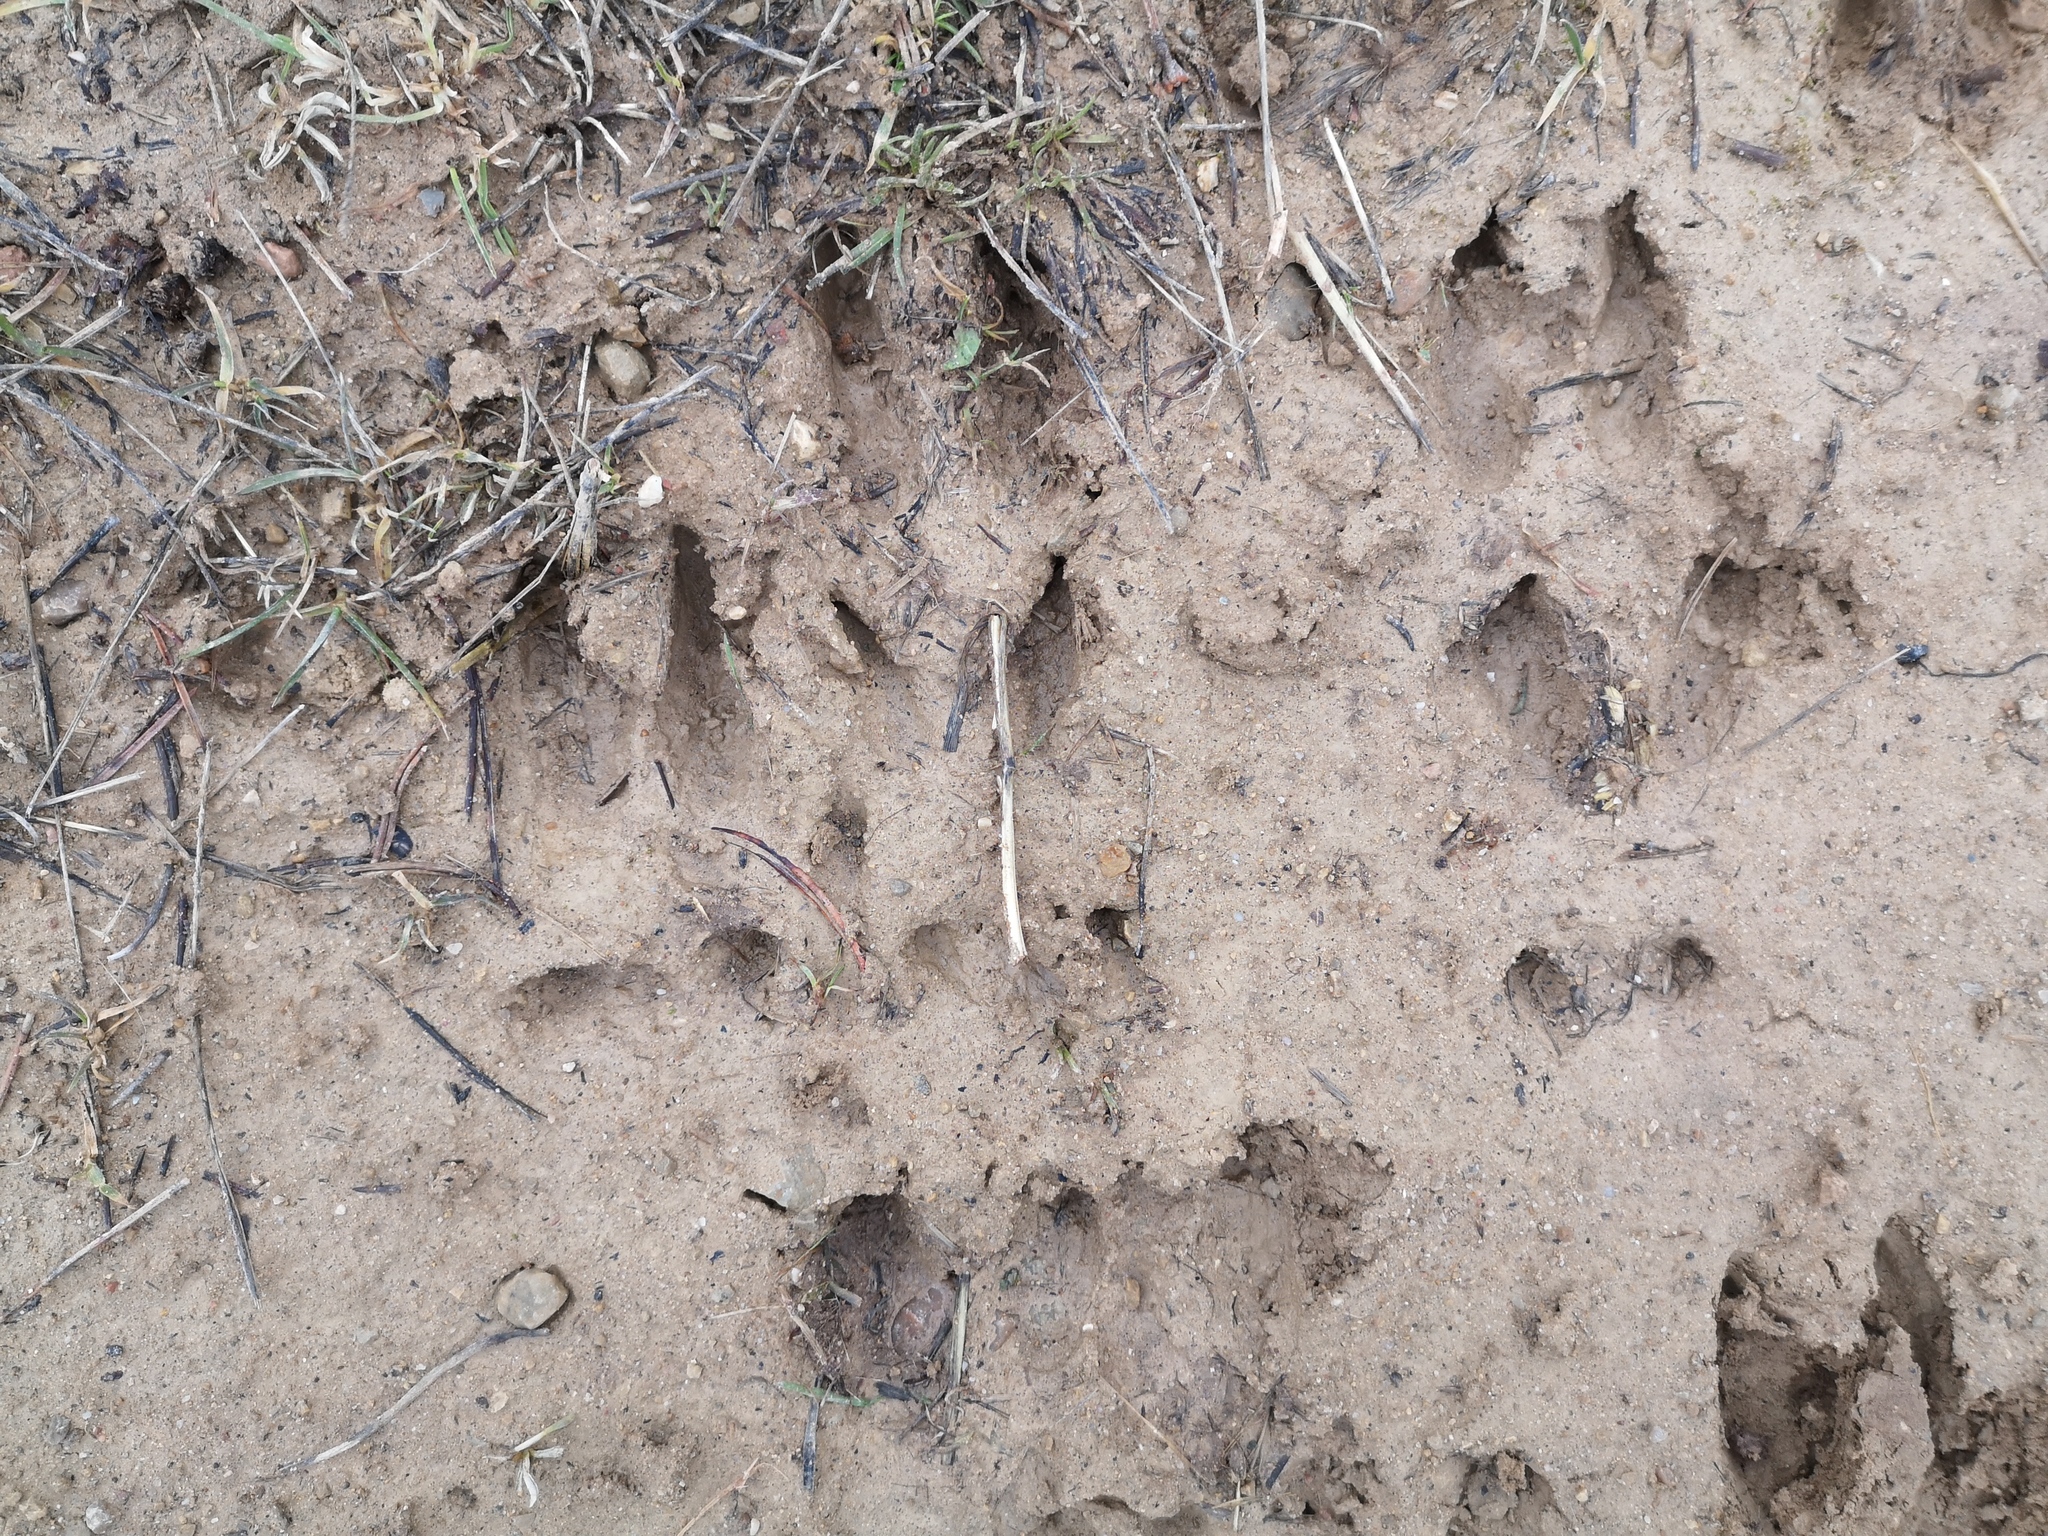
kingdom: Animalia
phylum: Chordata
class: Mammalia
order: Artiodactyla
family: Cervidae
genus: Capreolus
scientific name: Capreolus capreolus
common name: Western roe deer
